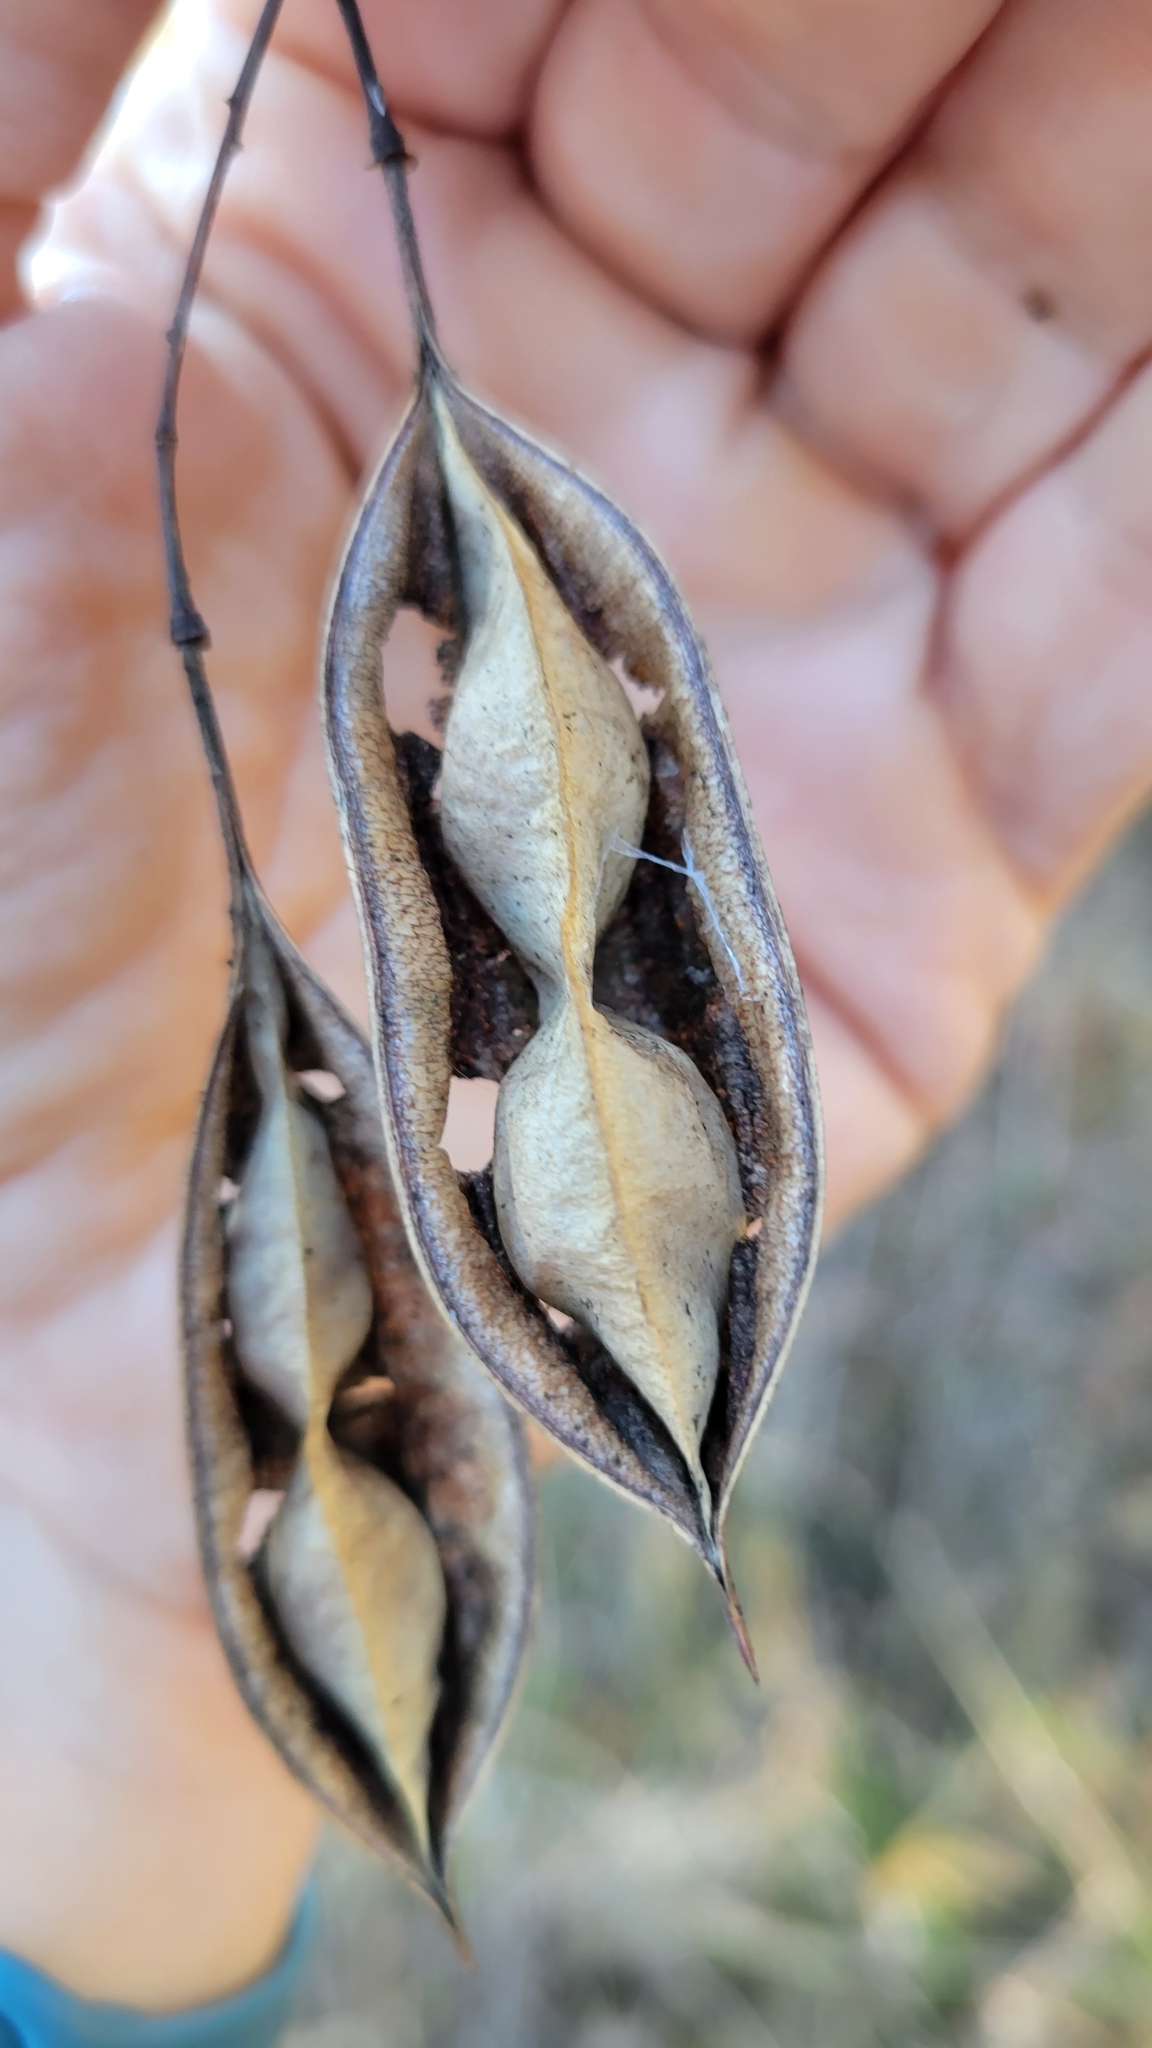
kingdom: Plantae
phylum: Tracheophyta
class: Magnoliopsida
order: Fabales
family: Fabaceae
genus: Sesbania
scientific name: Sesbania vesicaria
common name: Bagpod
